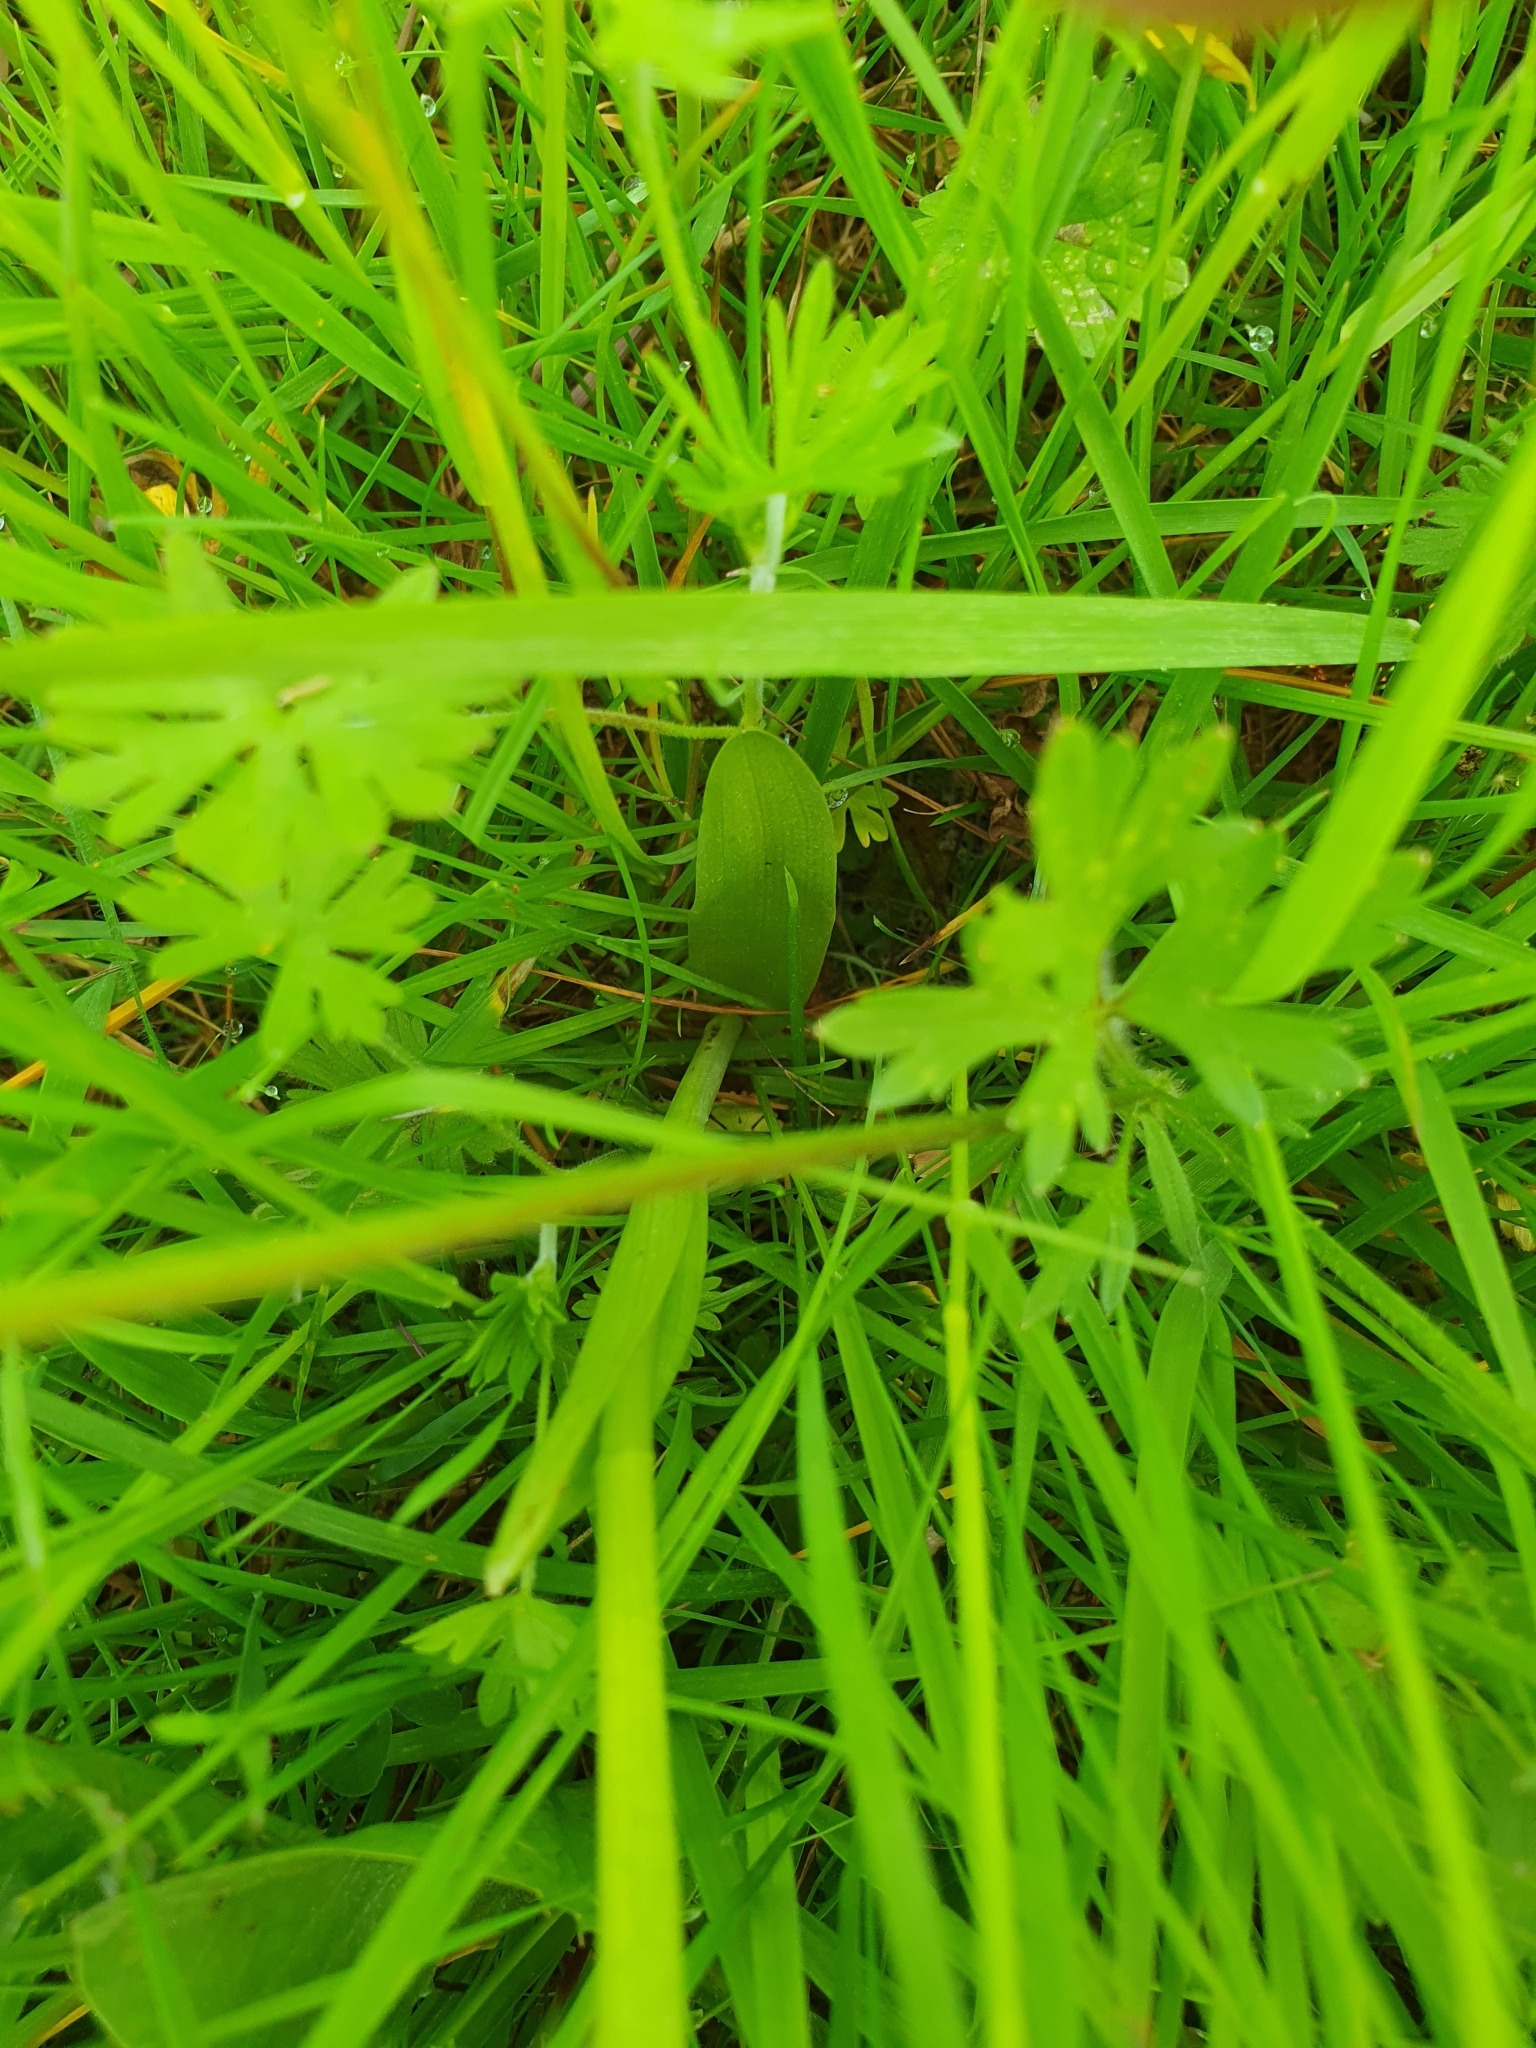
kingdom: Plantae
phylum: Tracheophyta
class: Liliopsida
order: Asparagales
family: Orchidaceae
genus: Anacamptis
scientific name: Anacamptis morio
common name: Green-winged orchid
